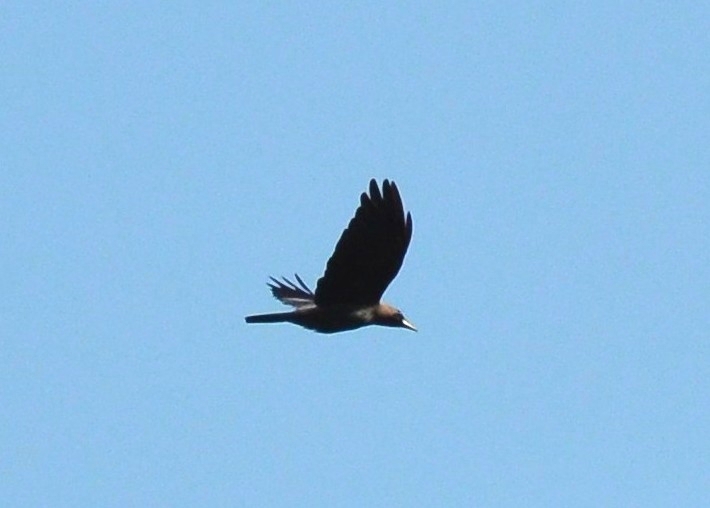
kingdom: Animalia
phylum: Chordata
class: Aves
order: Passeriformes
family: Corvidae
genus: Corvus
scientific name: Corvus splendens
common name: House crow
